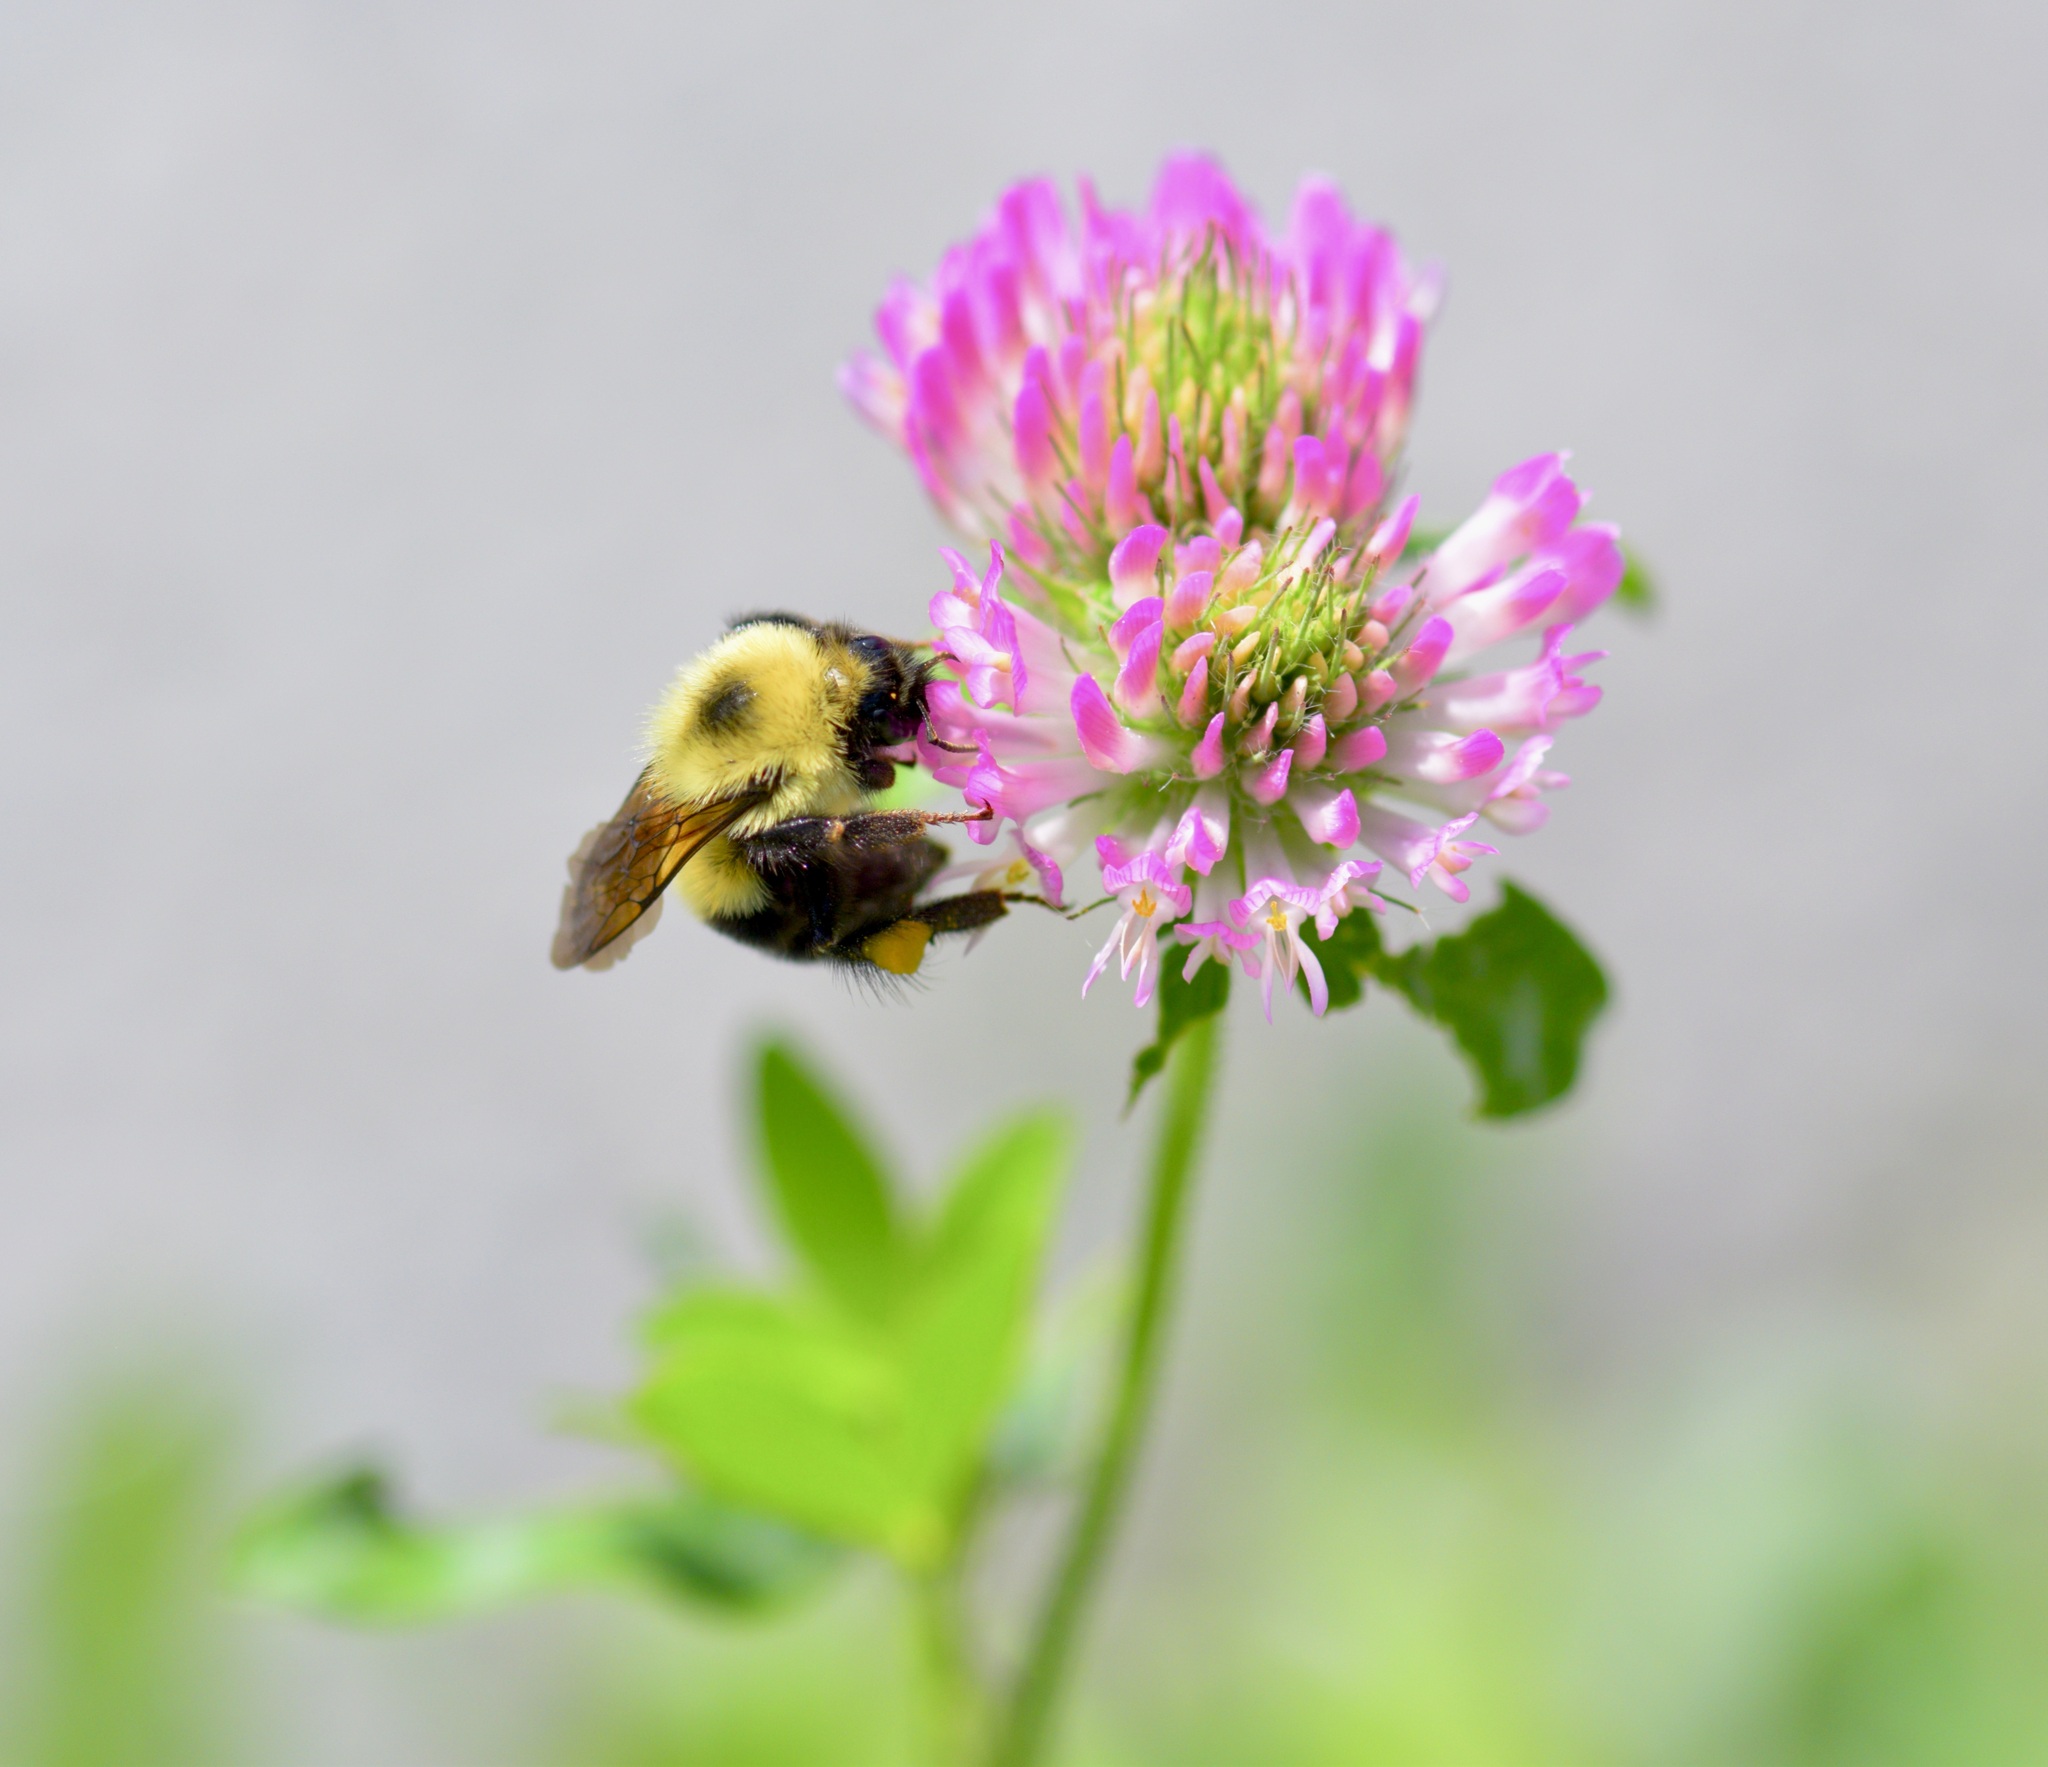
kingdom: Animalia
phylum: Arthropoda
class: Insecta
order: Hymenoptera
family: Apidae
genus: Bombus
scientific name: Bombus bimaculatus
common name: Two-spotted bumble bee
